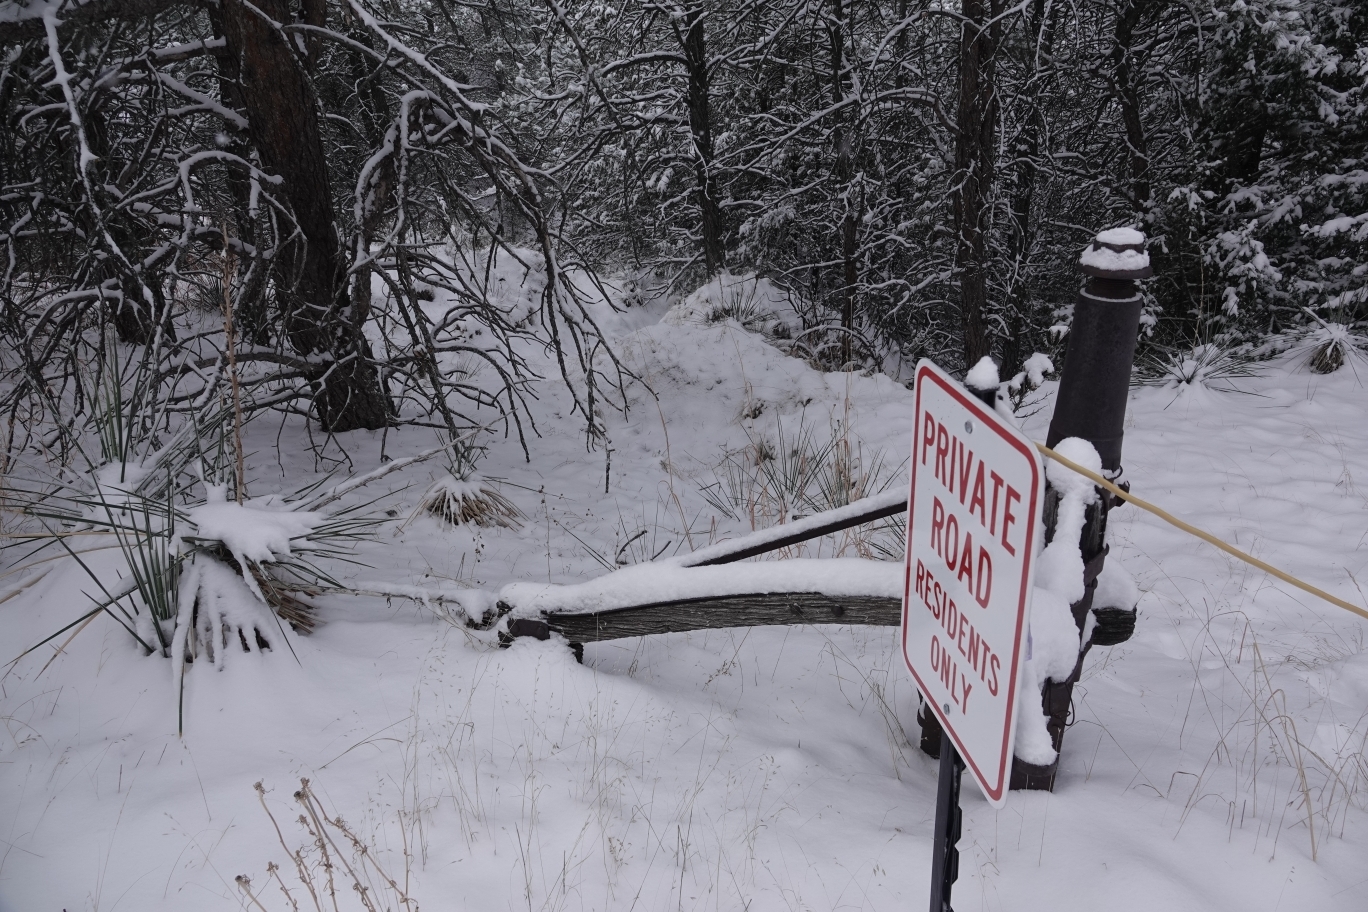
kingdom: Animalia
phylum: Chordata
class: Mammalia
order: Carnivora
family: Felidae
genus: Puma
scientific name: Puma concolor
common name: Puma
